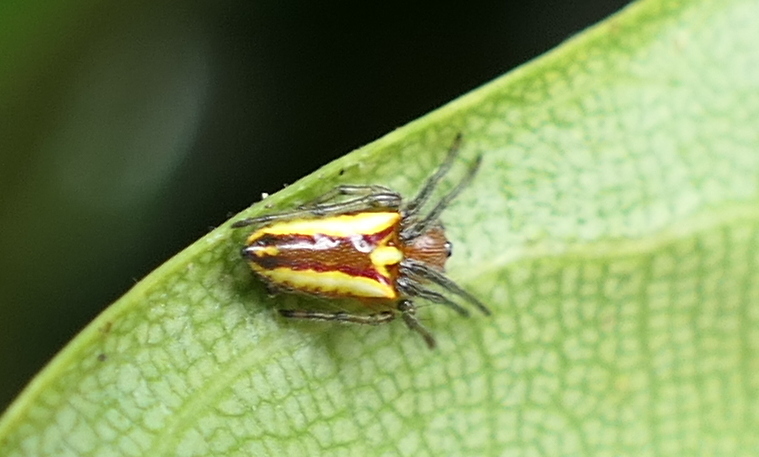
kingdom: Animalia
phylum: Arthropoda
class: Arachnida
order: Araneae
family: Araneidae
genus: Alpaida
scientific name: Alpaida bicornuta
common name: Orb weavers
